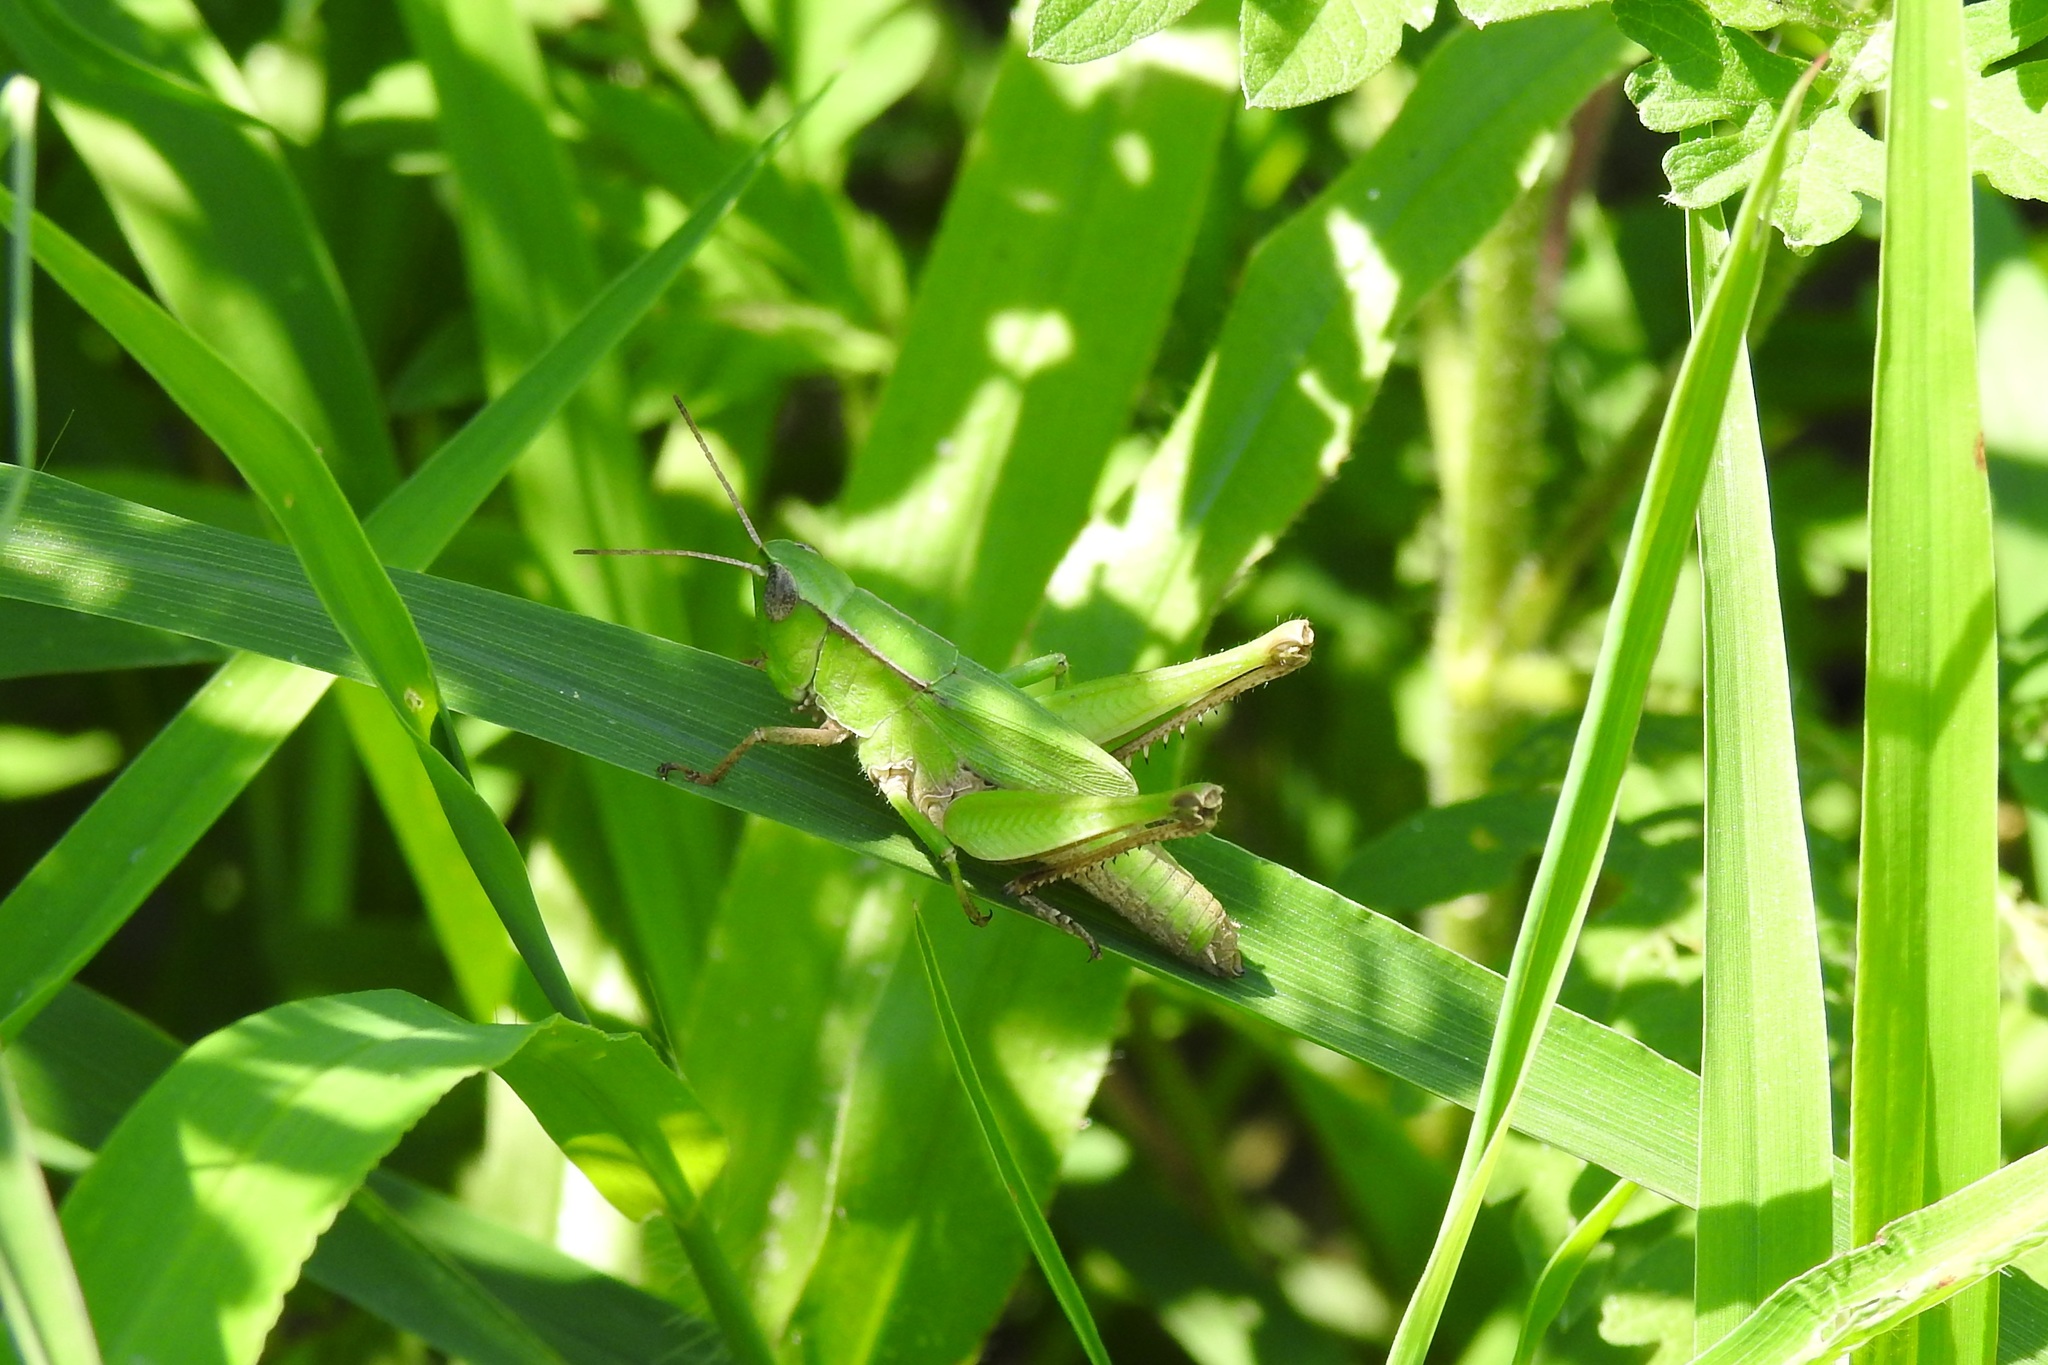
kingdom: Animalia
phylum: Arthropoda
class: Insecta
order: Orthoptera
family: Acrididae
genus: Dichromorpha
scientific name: Dichromorpha viridis
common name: Short-winged green grasshopper
